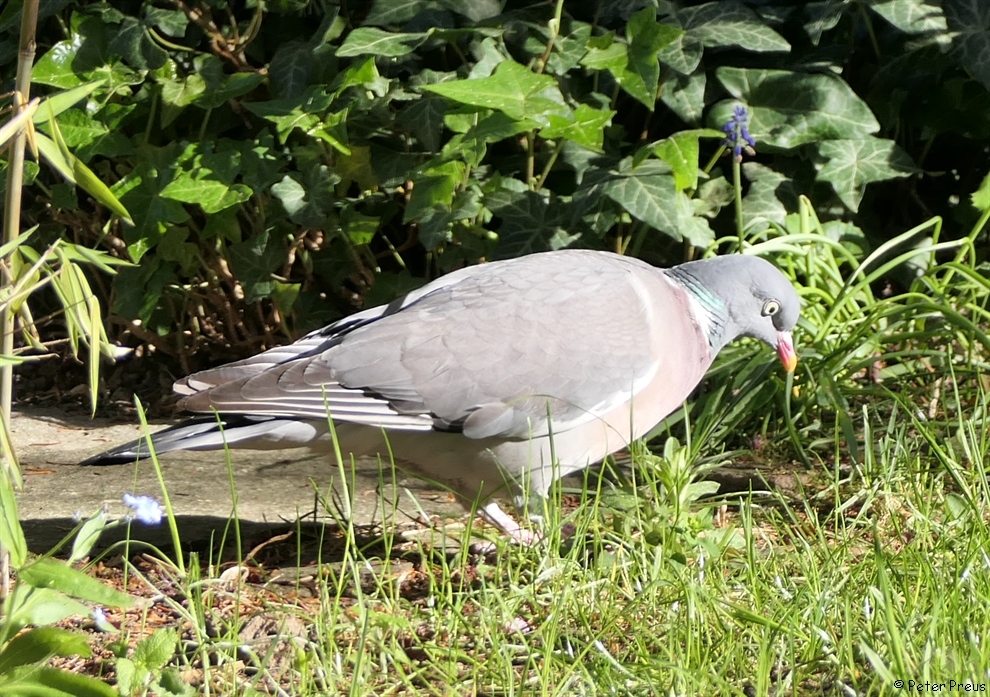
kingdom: Animalia
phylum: Chordata
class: Aves
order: Columbiformes
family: Columbidae
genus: Columba
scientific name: Columba palumbus
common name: Common wood pigeon
